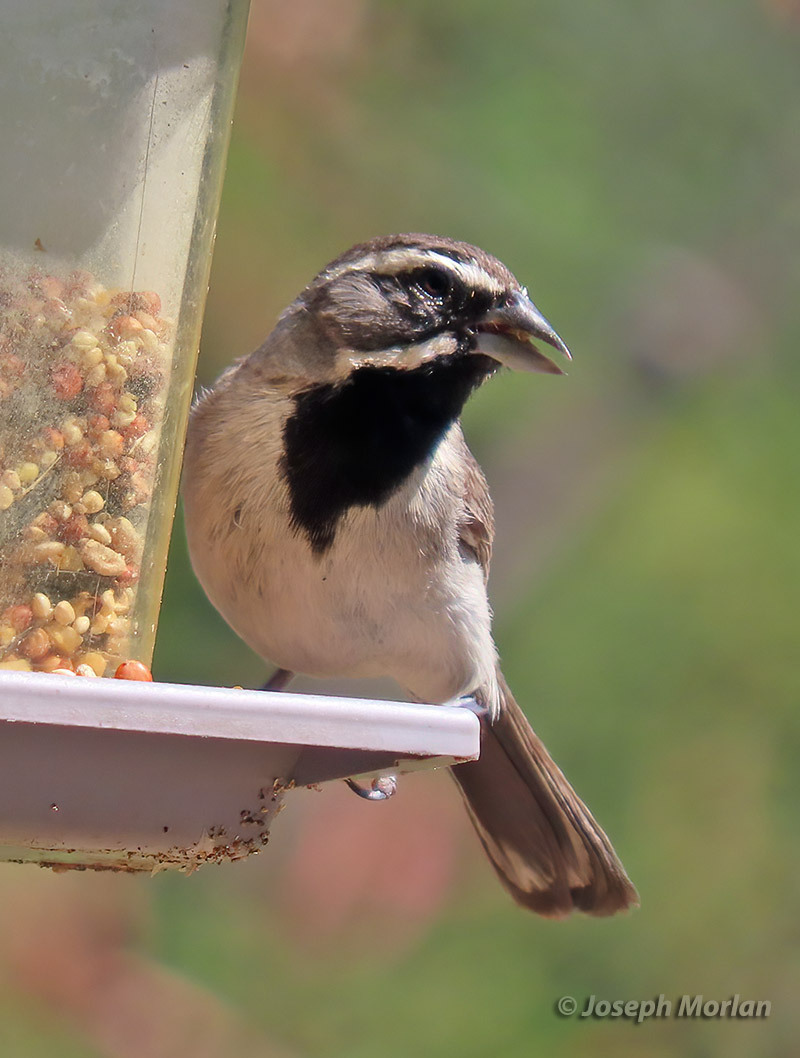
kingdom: Animalia
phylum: Chordata
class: Aves
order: Passeriformes
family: Passerellidae
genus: Amphispiza
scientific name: Amphispiza bilineata
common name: Black-throated sparrow
